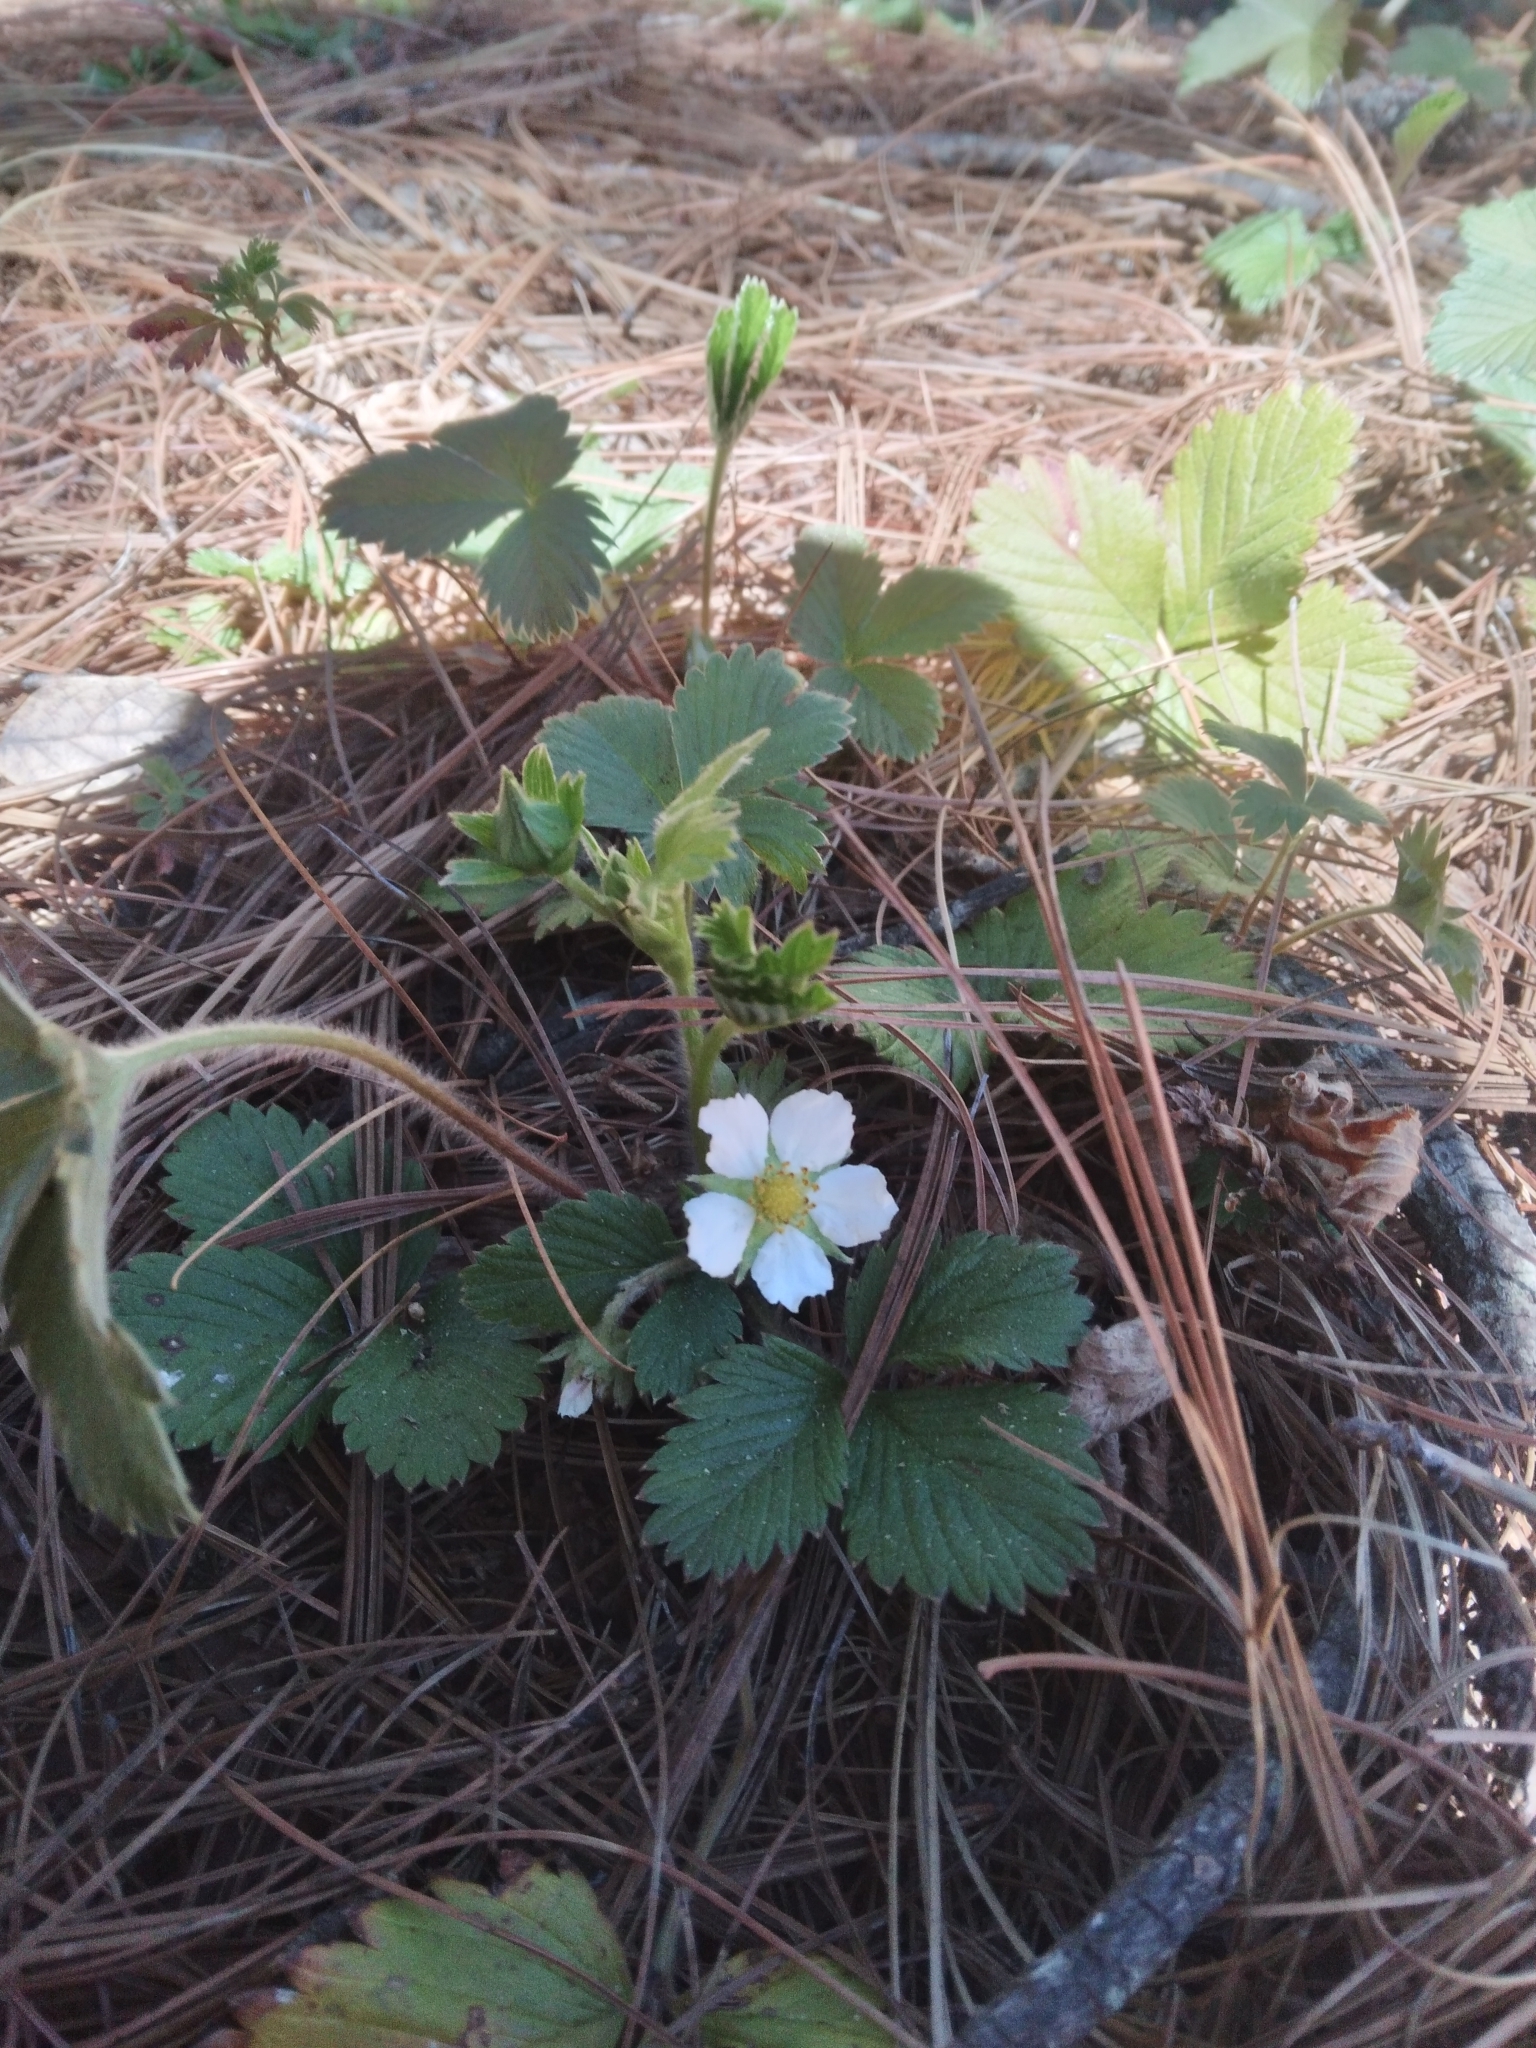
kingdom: Plantae
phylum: Tracheophyta
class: Magnoliopsida
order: Rosales
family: Rosaceae
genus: Fragaria
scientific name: Fragaria vesca
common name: Wild strawberry
